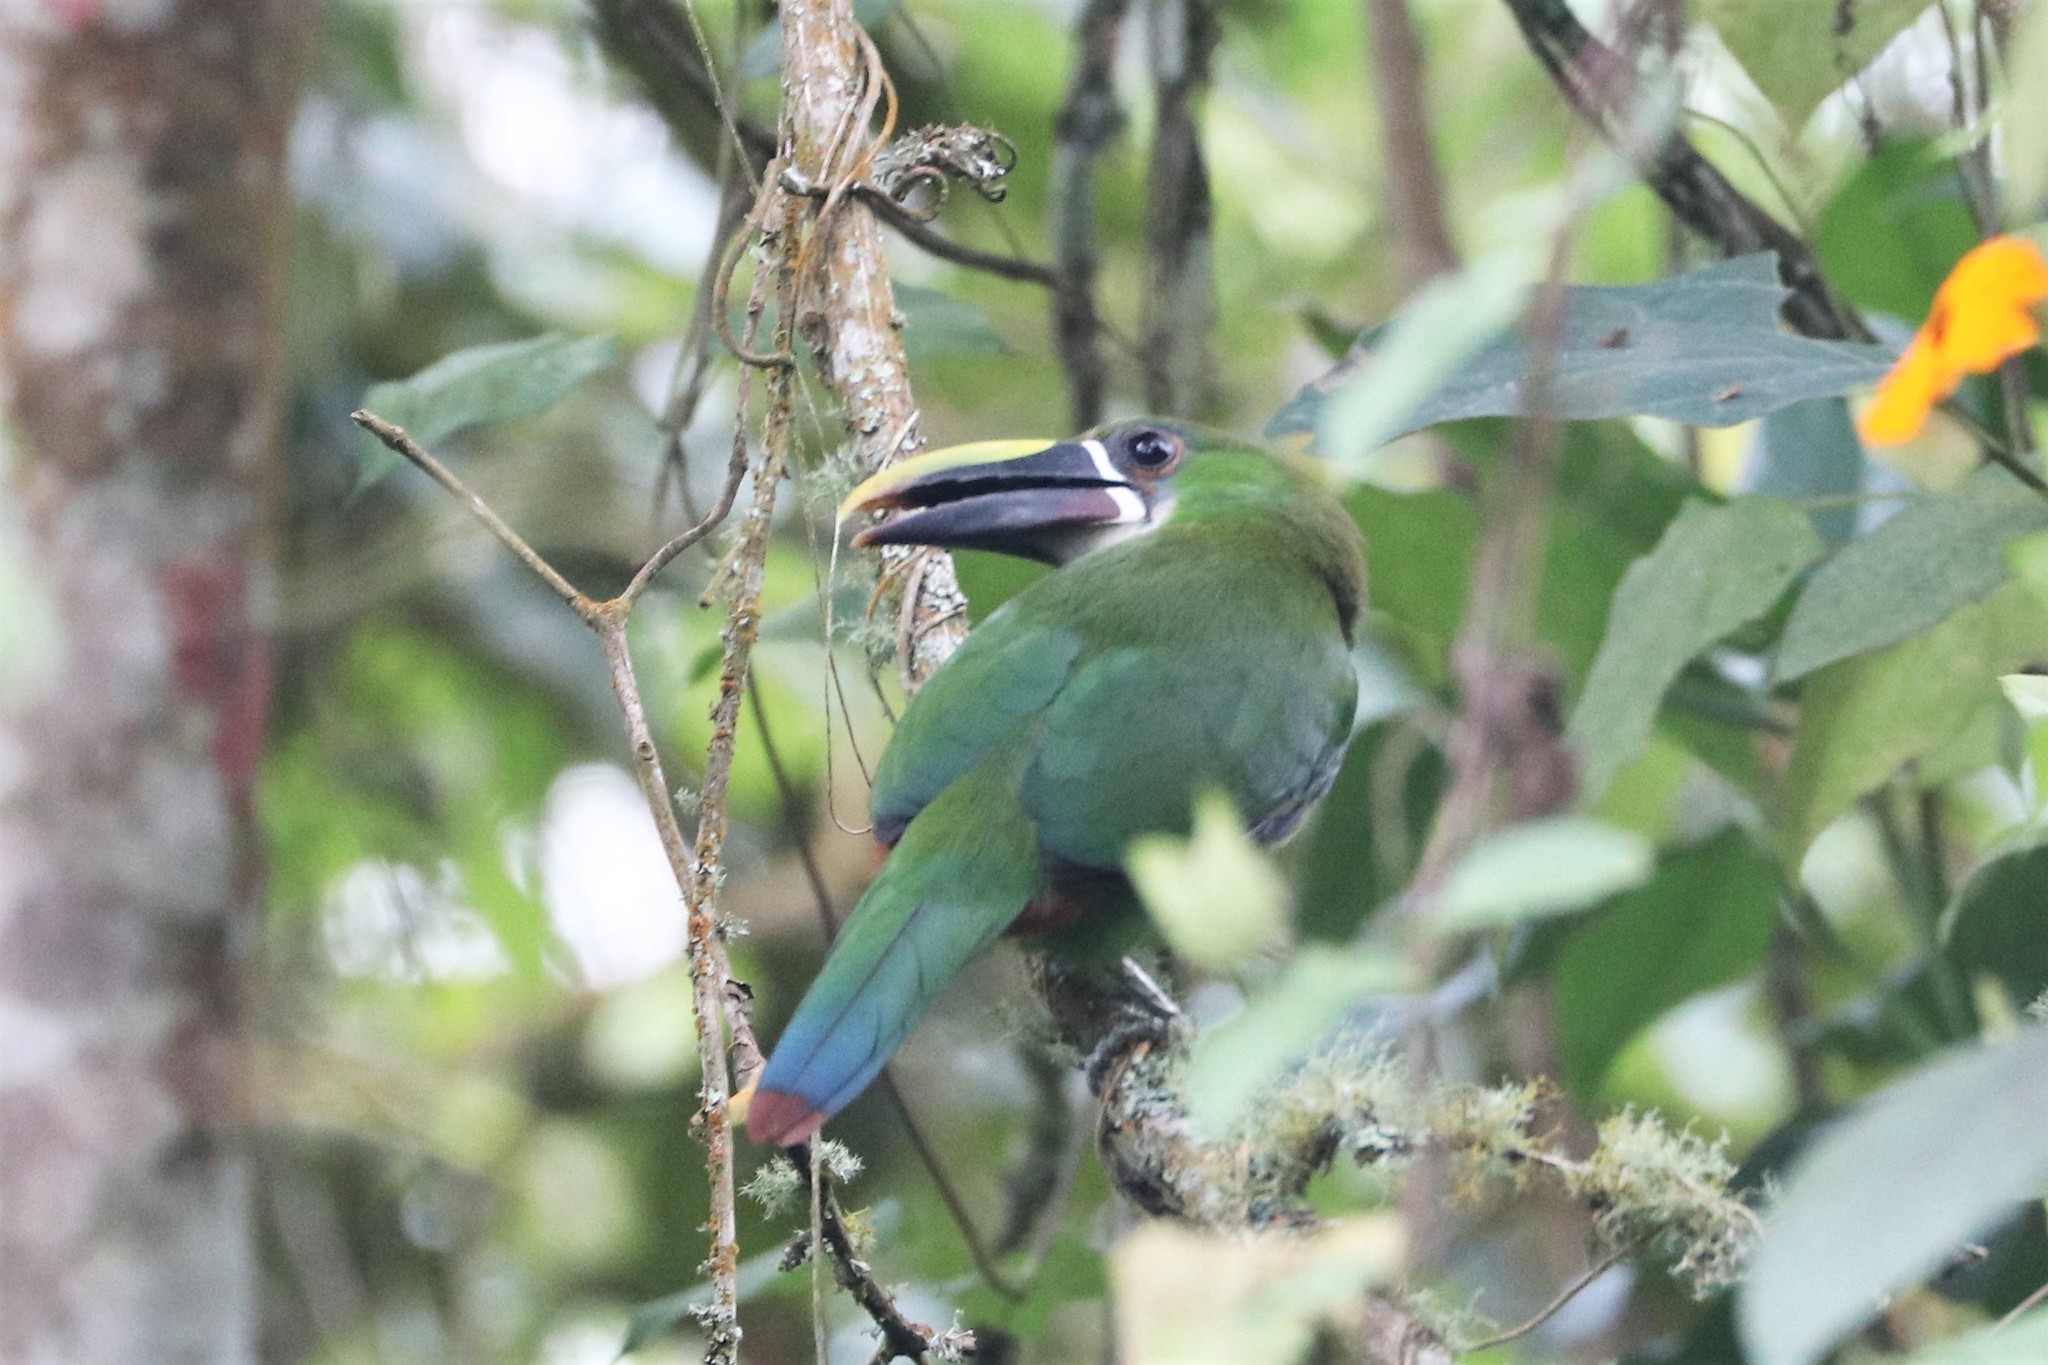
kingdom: Animalia
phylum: Chordata
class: Aves
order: Piciformes
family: Ramphastidae
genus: Aulacorhynchus
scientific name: Aulacorhynchus albivitta
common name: White-throated toucanet
